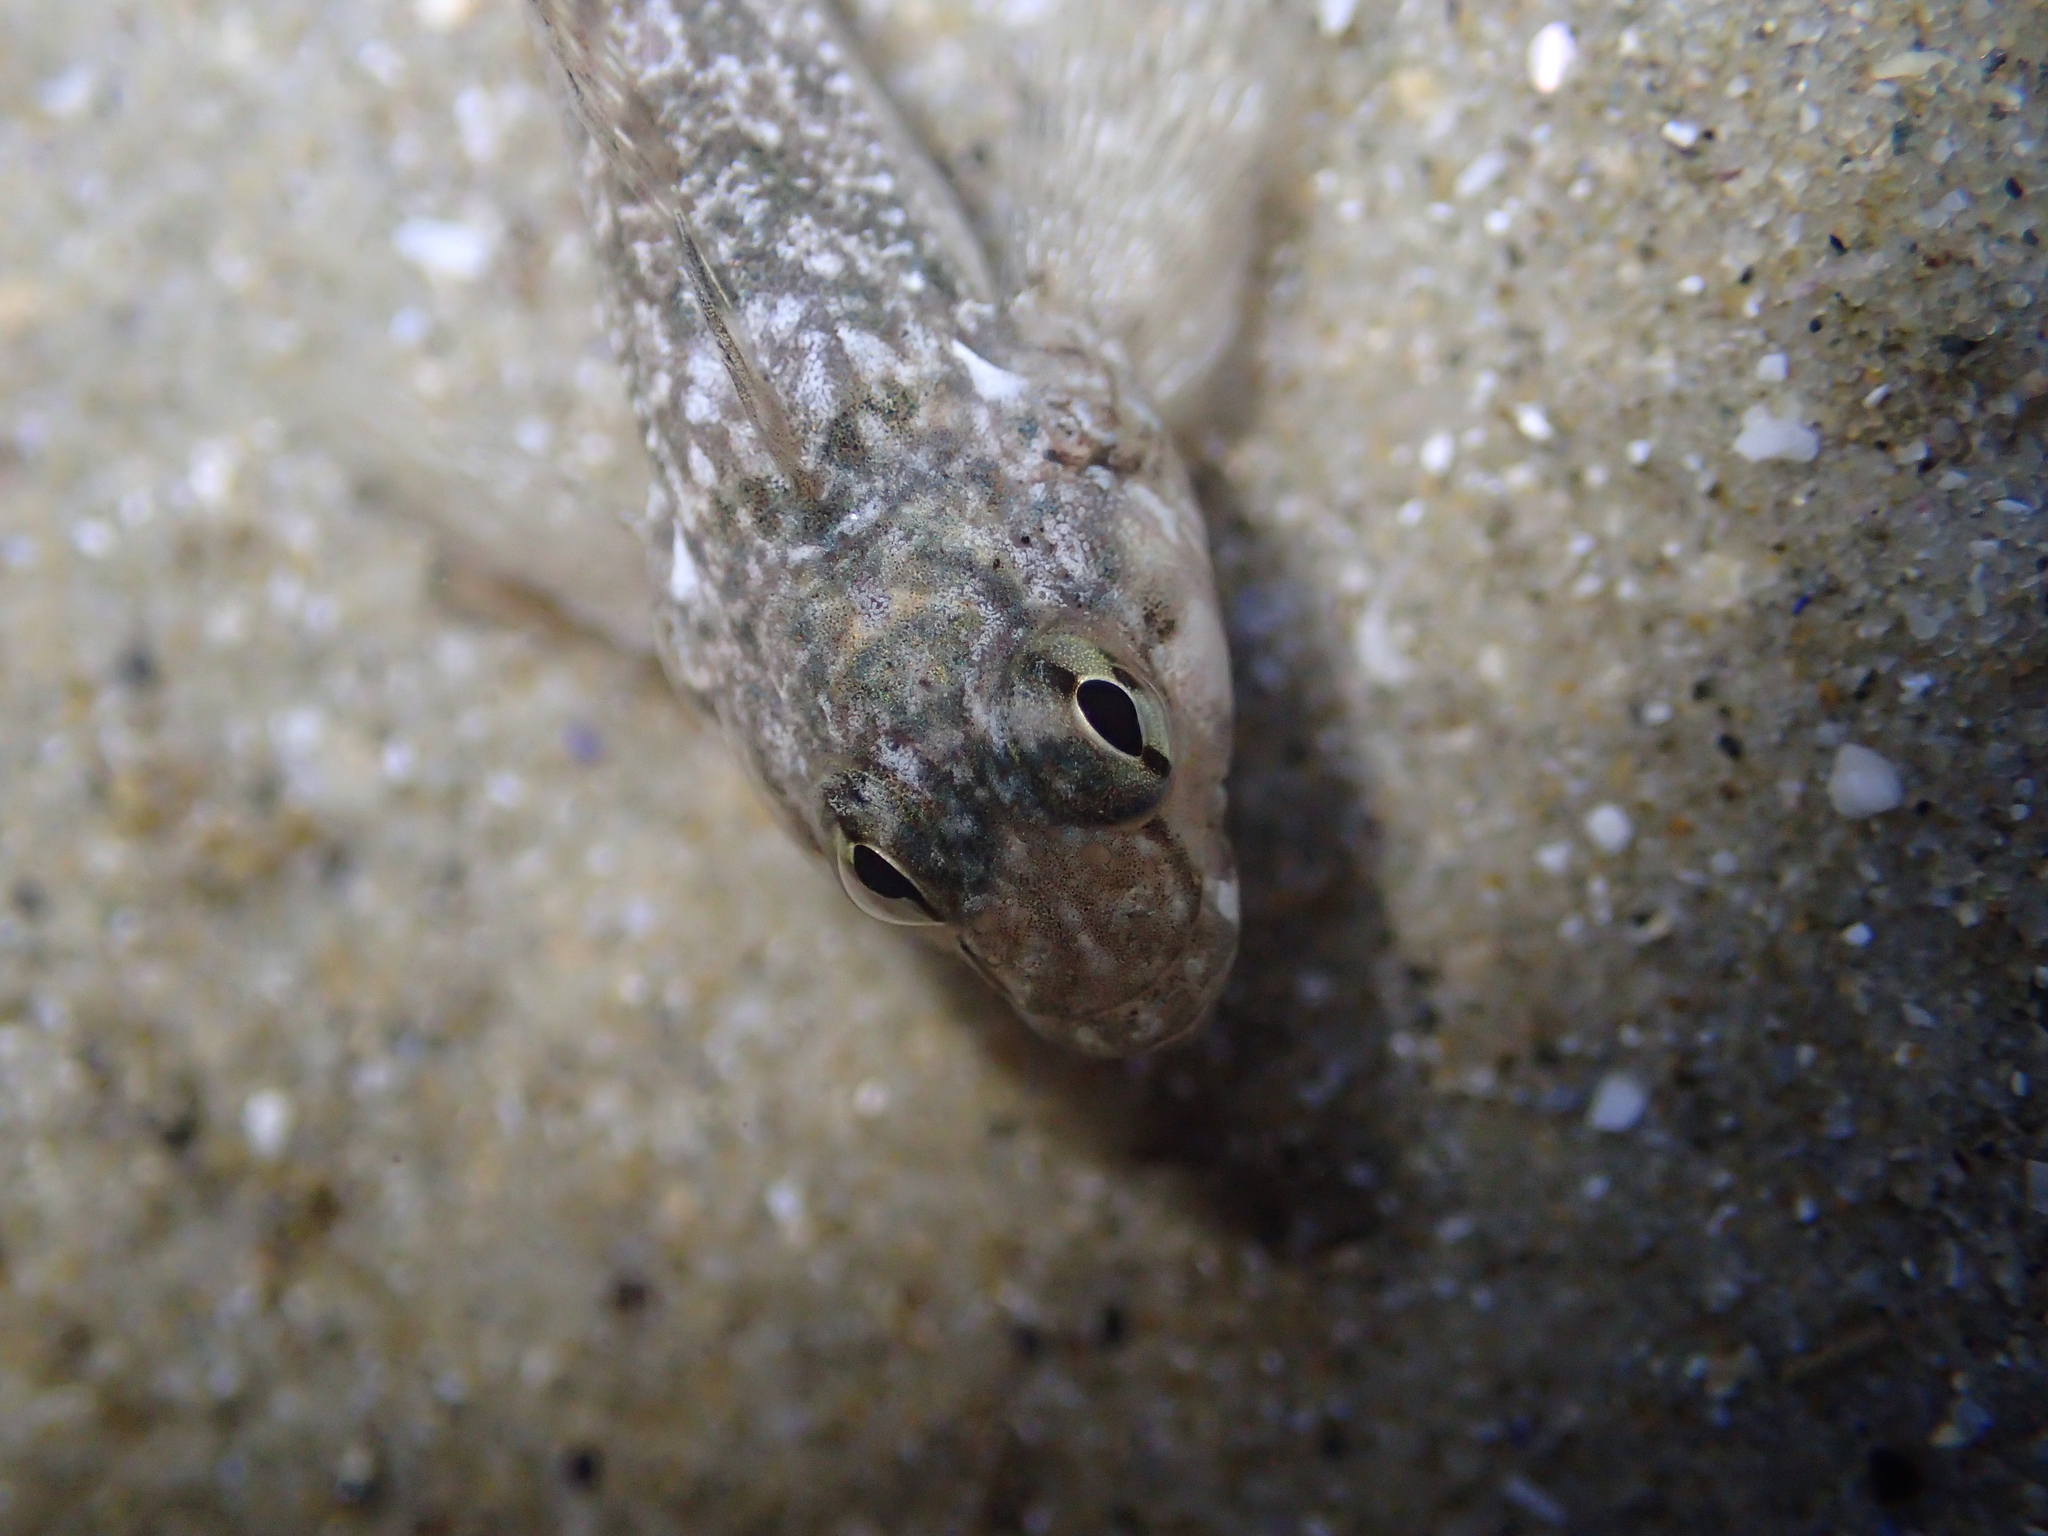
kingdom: Animalia
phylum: Chordata
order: Perciformes
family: Tripterygiidae
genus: Bellapiscis
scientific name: Bellapiscis medius
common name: Twister
